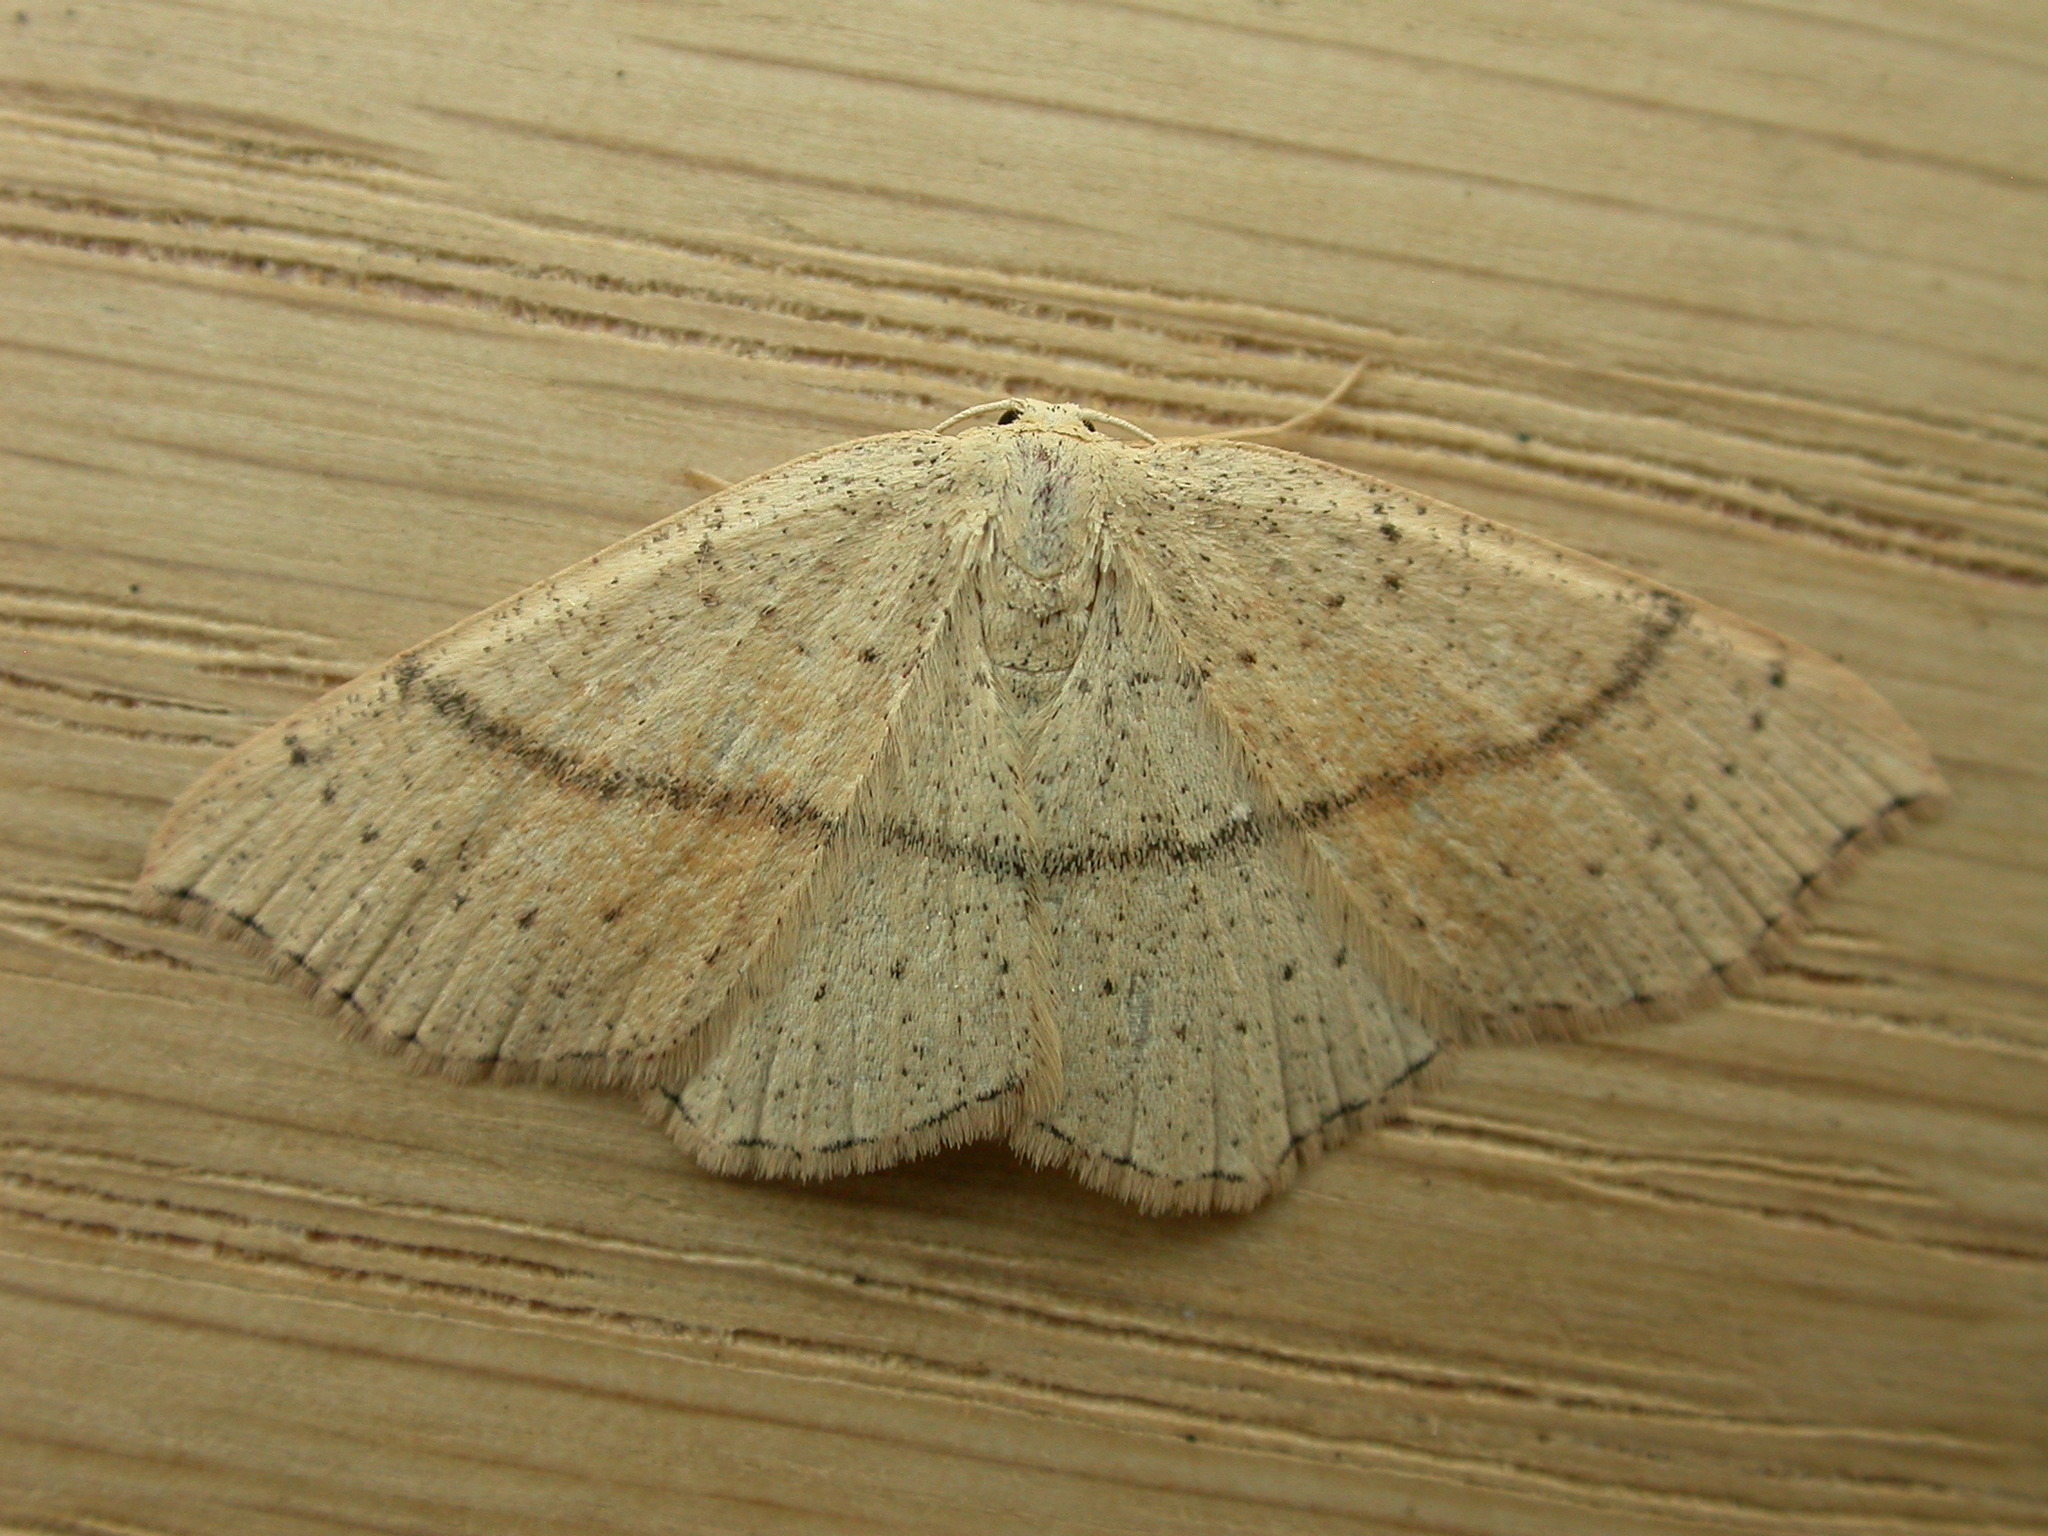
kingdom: Animalia
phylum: Arthropoda
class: Insecta
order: Lepidoptera
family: Geometridae
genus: Cyclophora
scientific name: Cyclophora punctaria
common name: Maiden's blush
